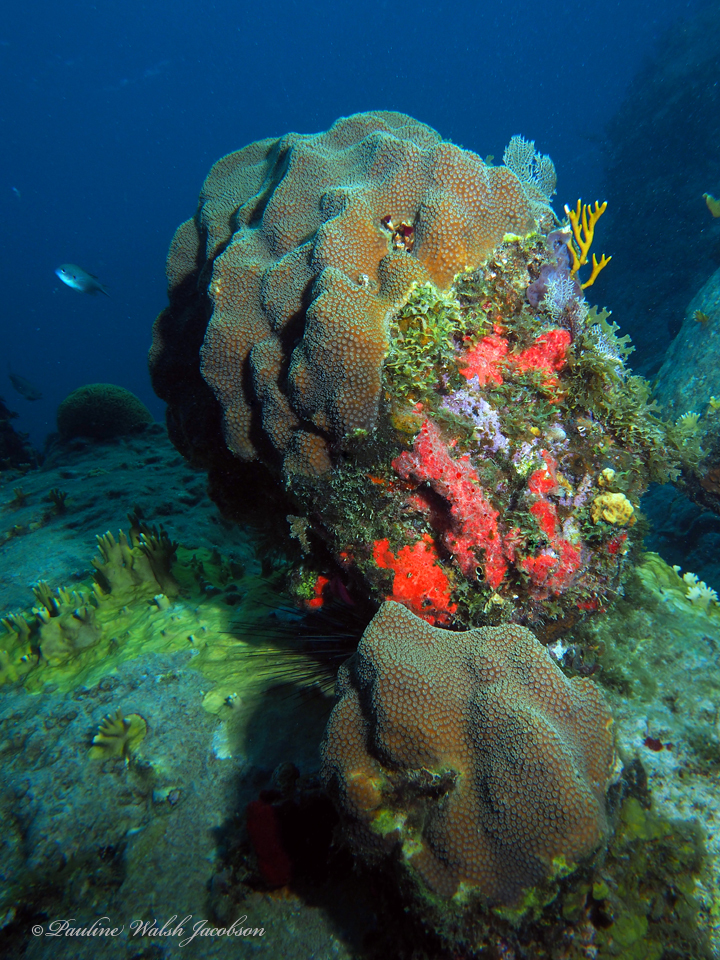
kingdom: Animalia
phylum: Cnidaria
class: Anthozoa
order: Scleractinia
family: Merulinidae
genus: Orbicella
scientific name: Orbicella faveolata
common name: Mountainous star coral
